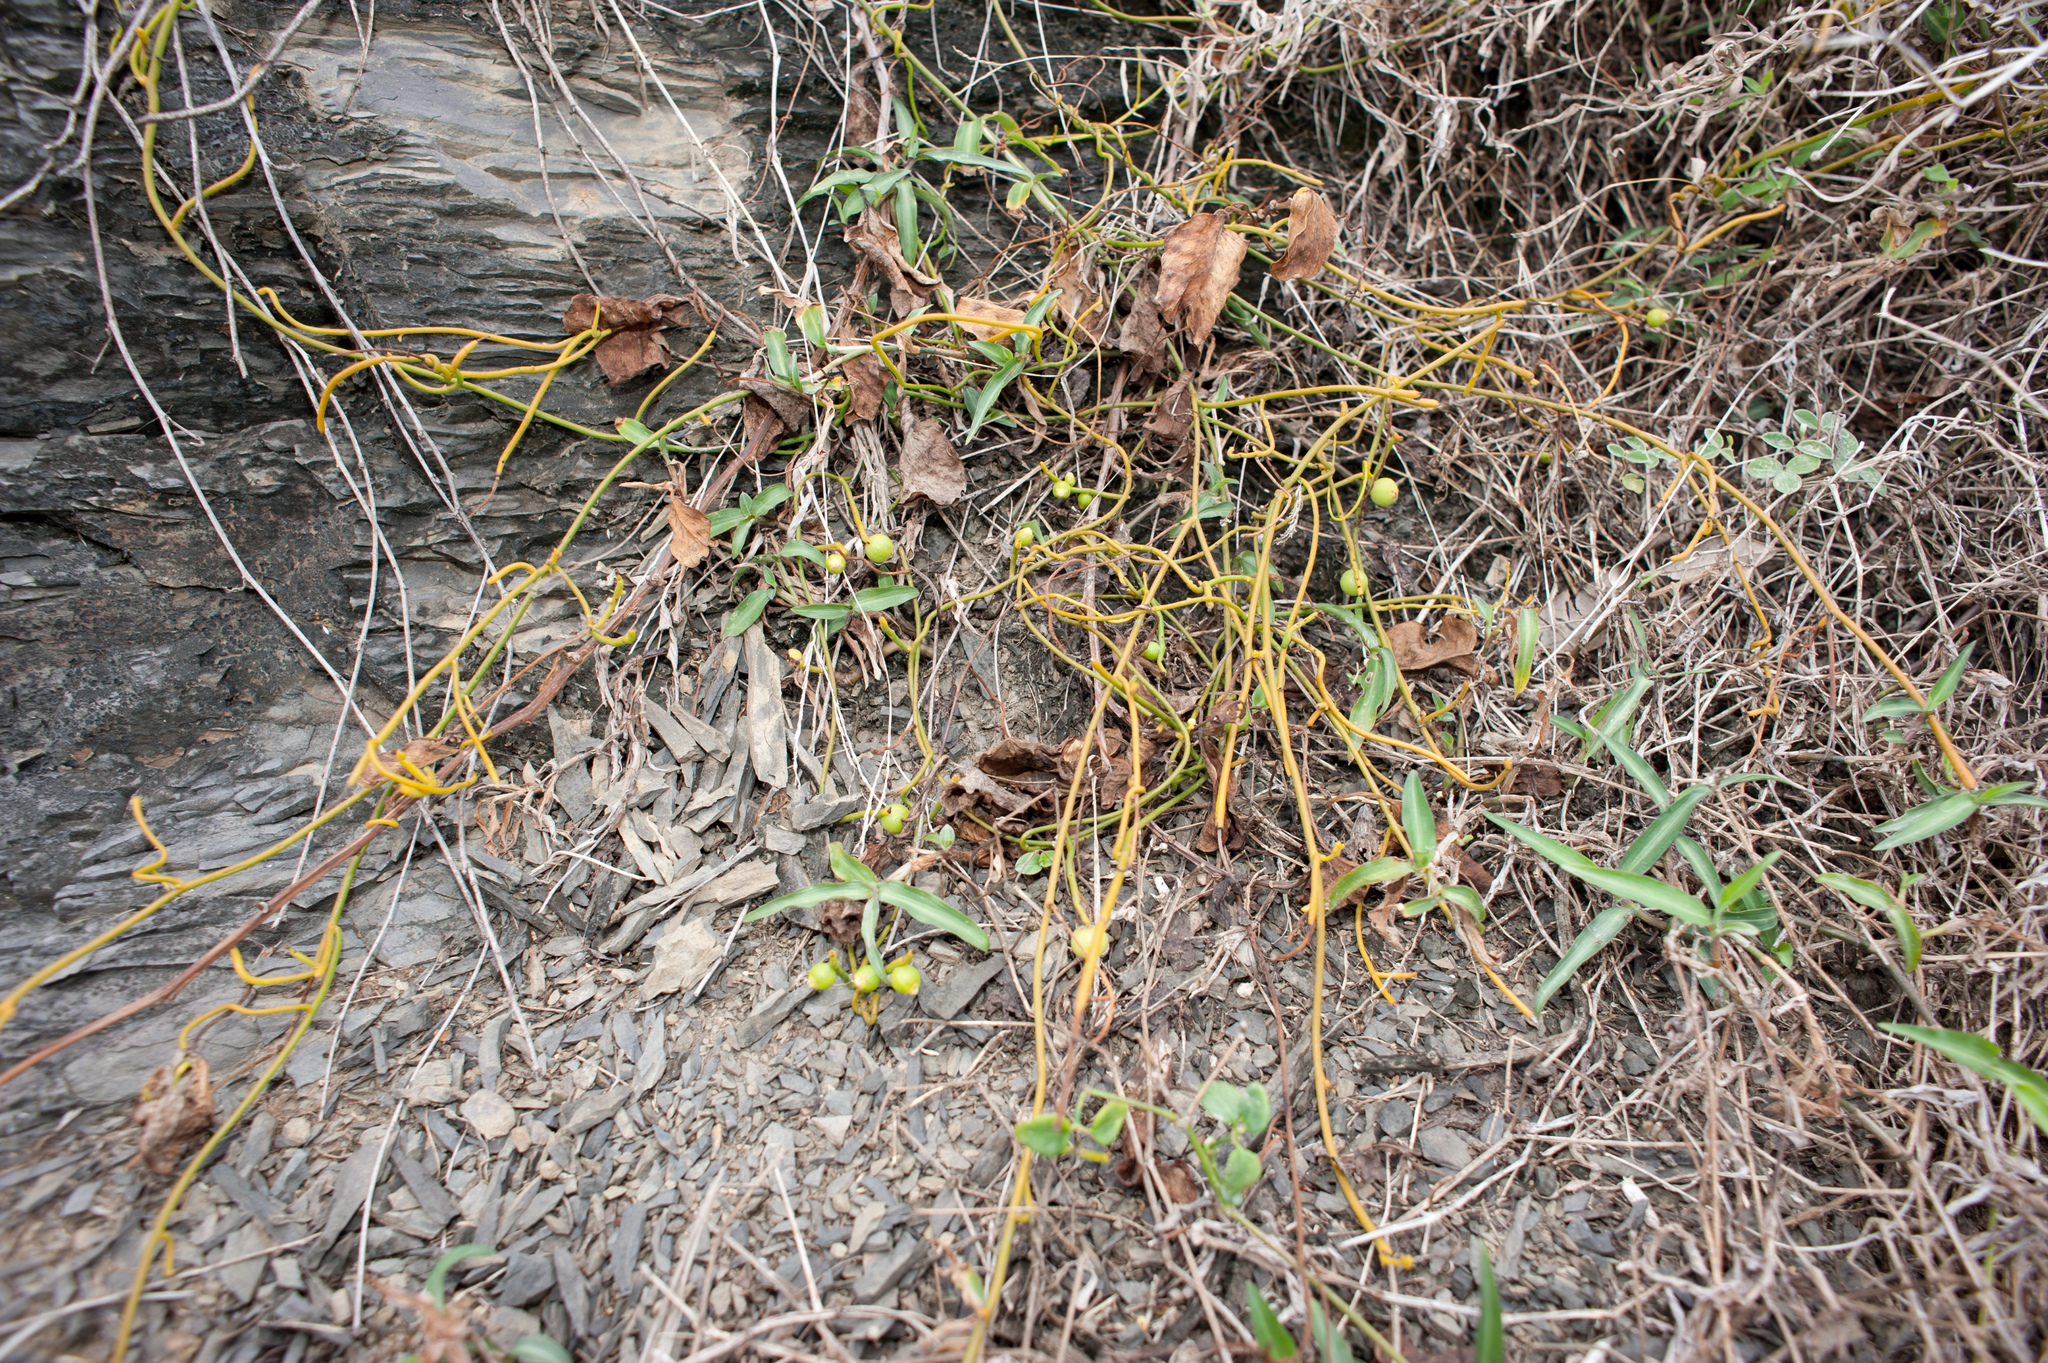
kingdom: Plantae
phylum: Tracheophyta
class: Magnoliopsida
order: Laurales
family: Lauraceae
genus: Cassytha
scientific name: Cassytha filiformis
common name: Dodder-laurel
